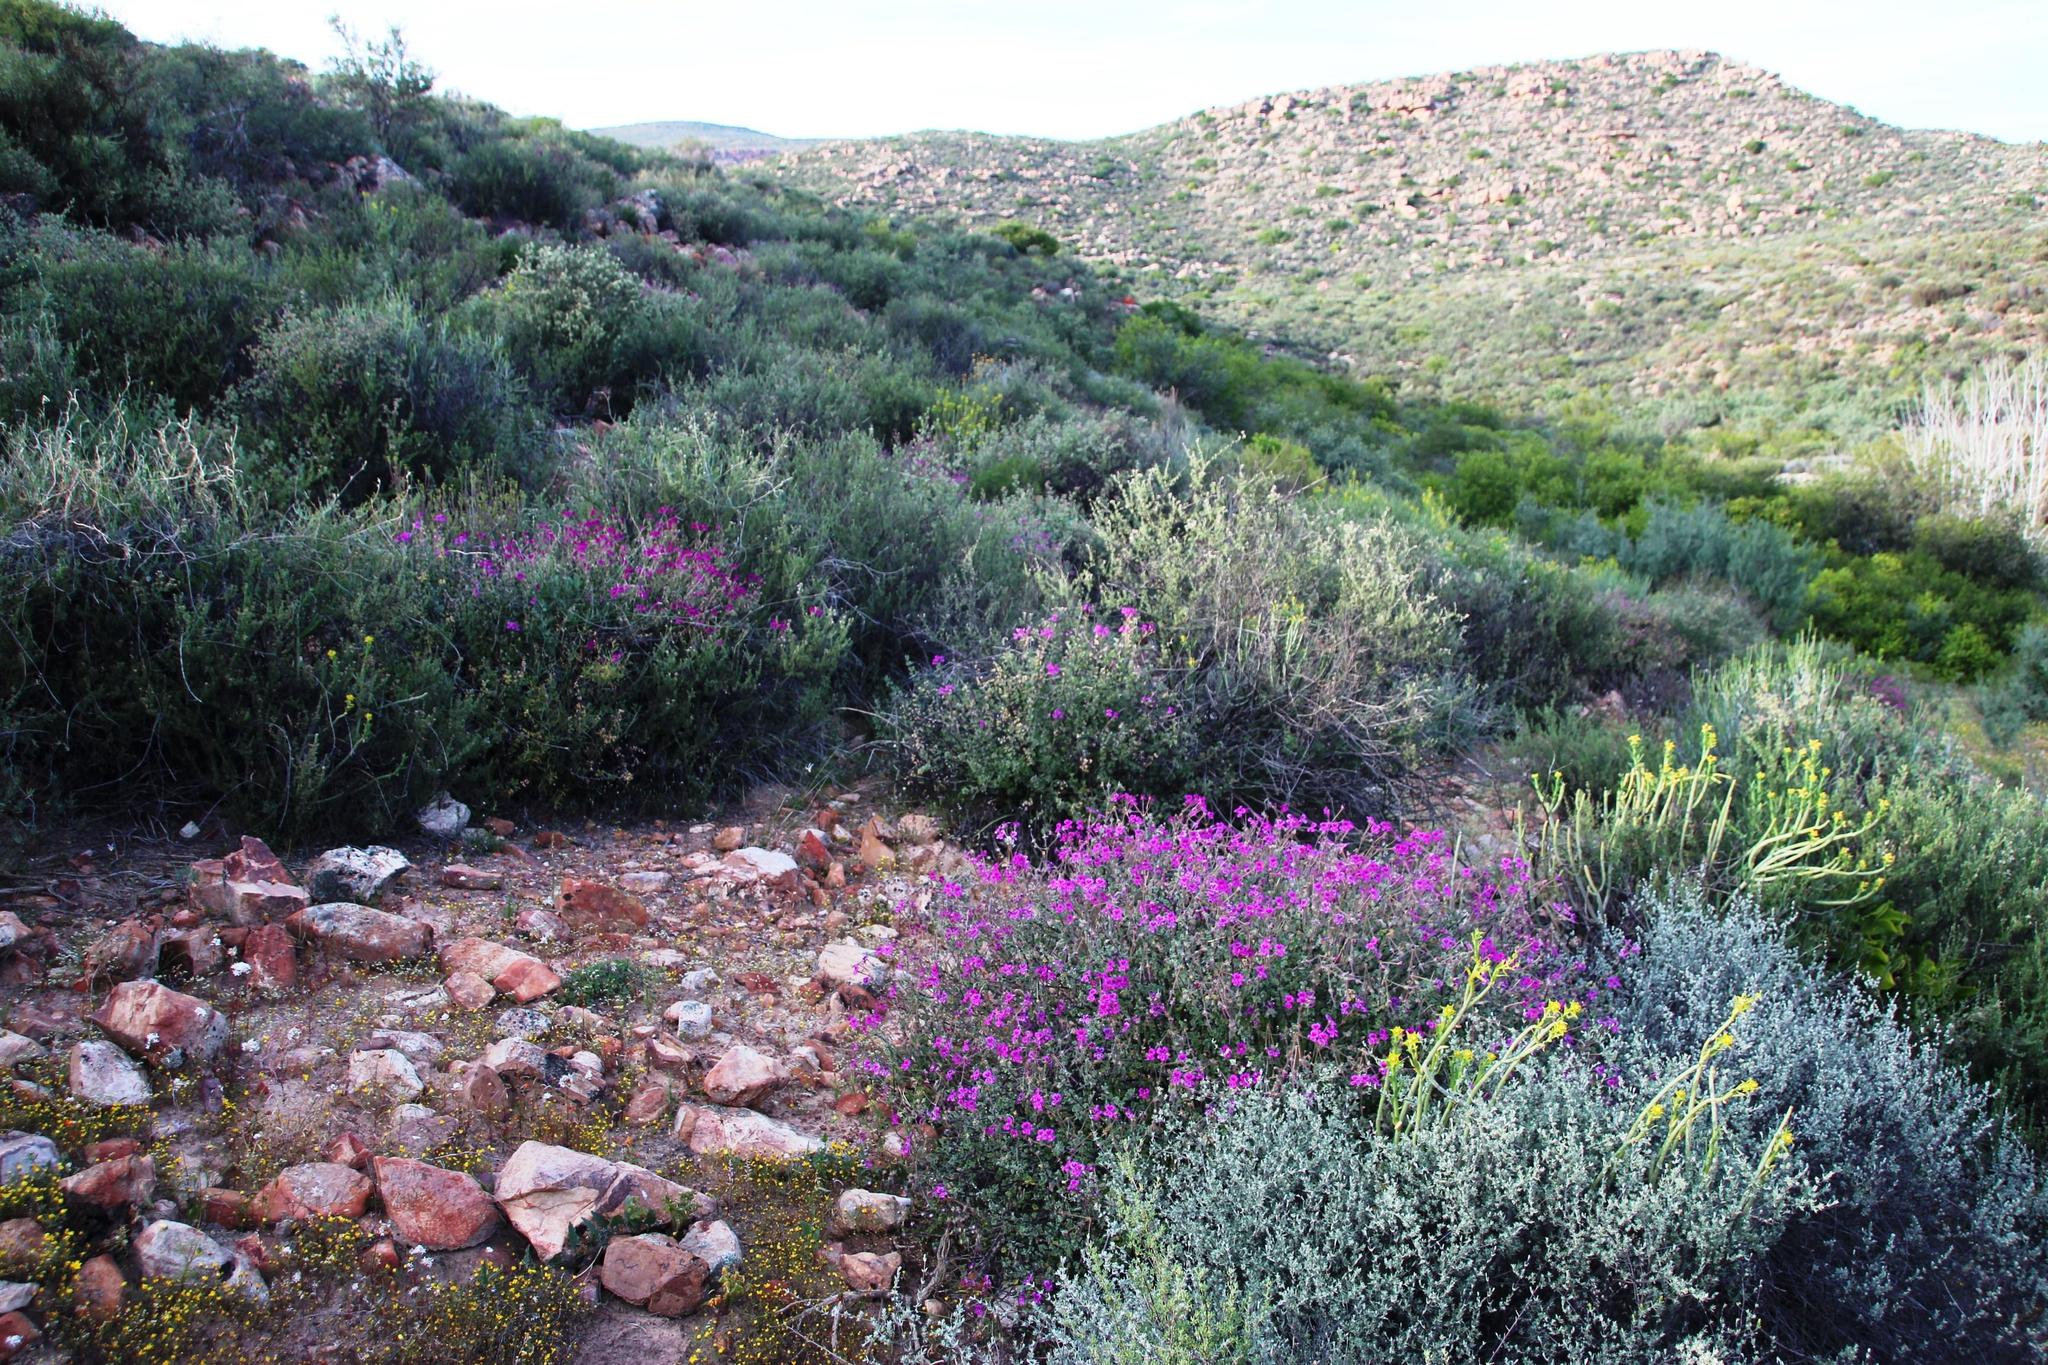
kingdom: Plantae
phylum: Tracheophyta
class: Magnoliopsida
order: Geraniales
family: Geraniaceae
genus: Pelargonium
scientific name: Pelargonium magenteum
